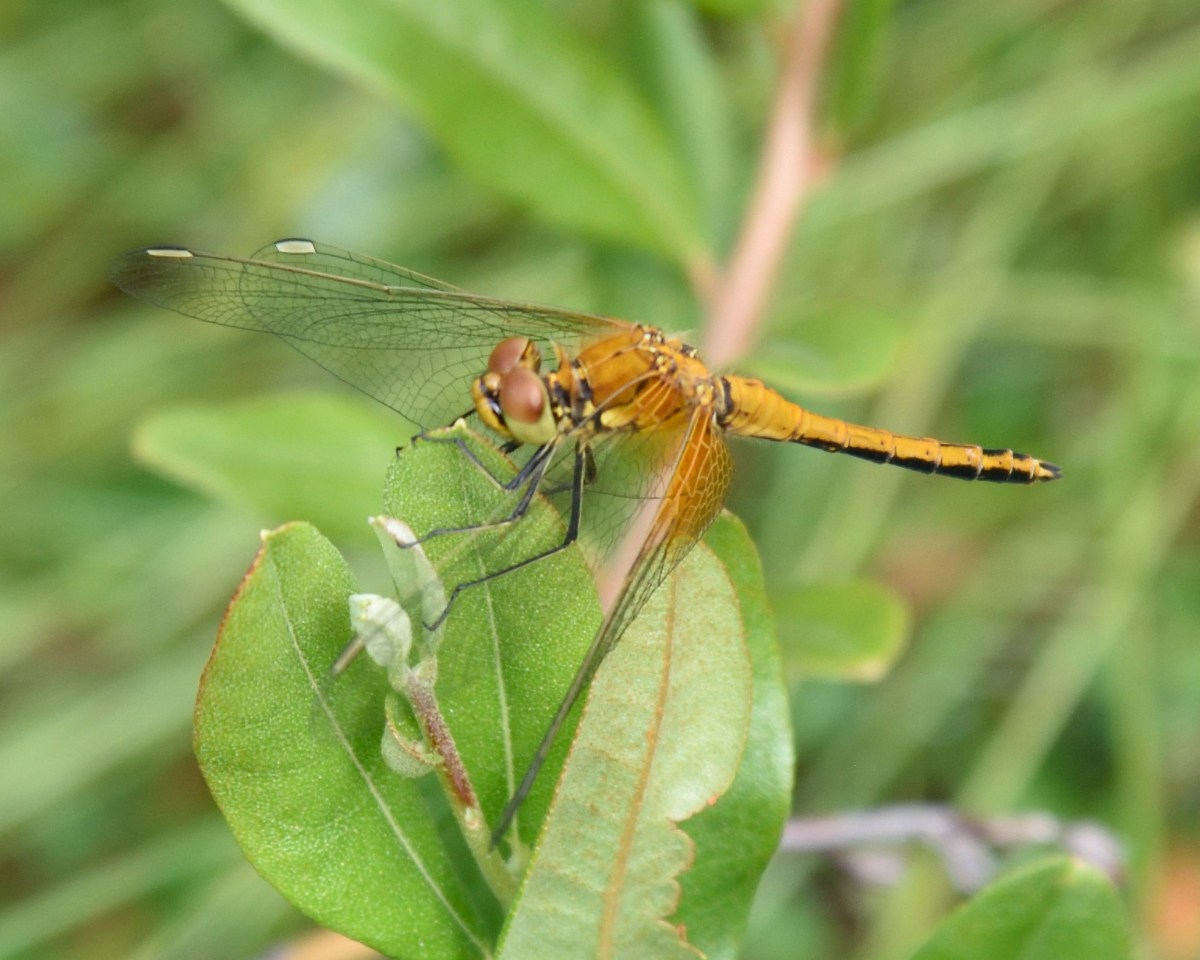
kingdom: Animalia
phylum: Arthropoda
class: Insecta
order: Odonata
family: Libellulidae
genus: Sympetrum
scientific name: Sympetrum flaveolum
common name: Yellow-winged darter
